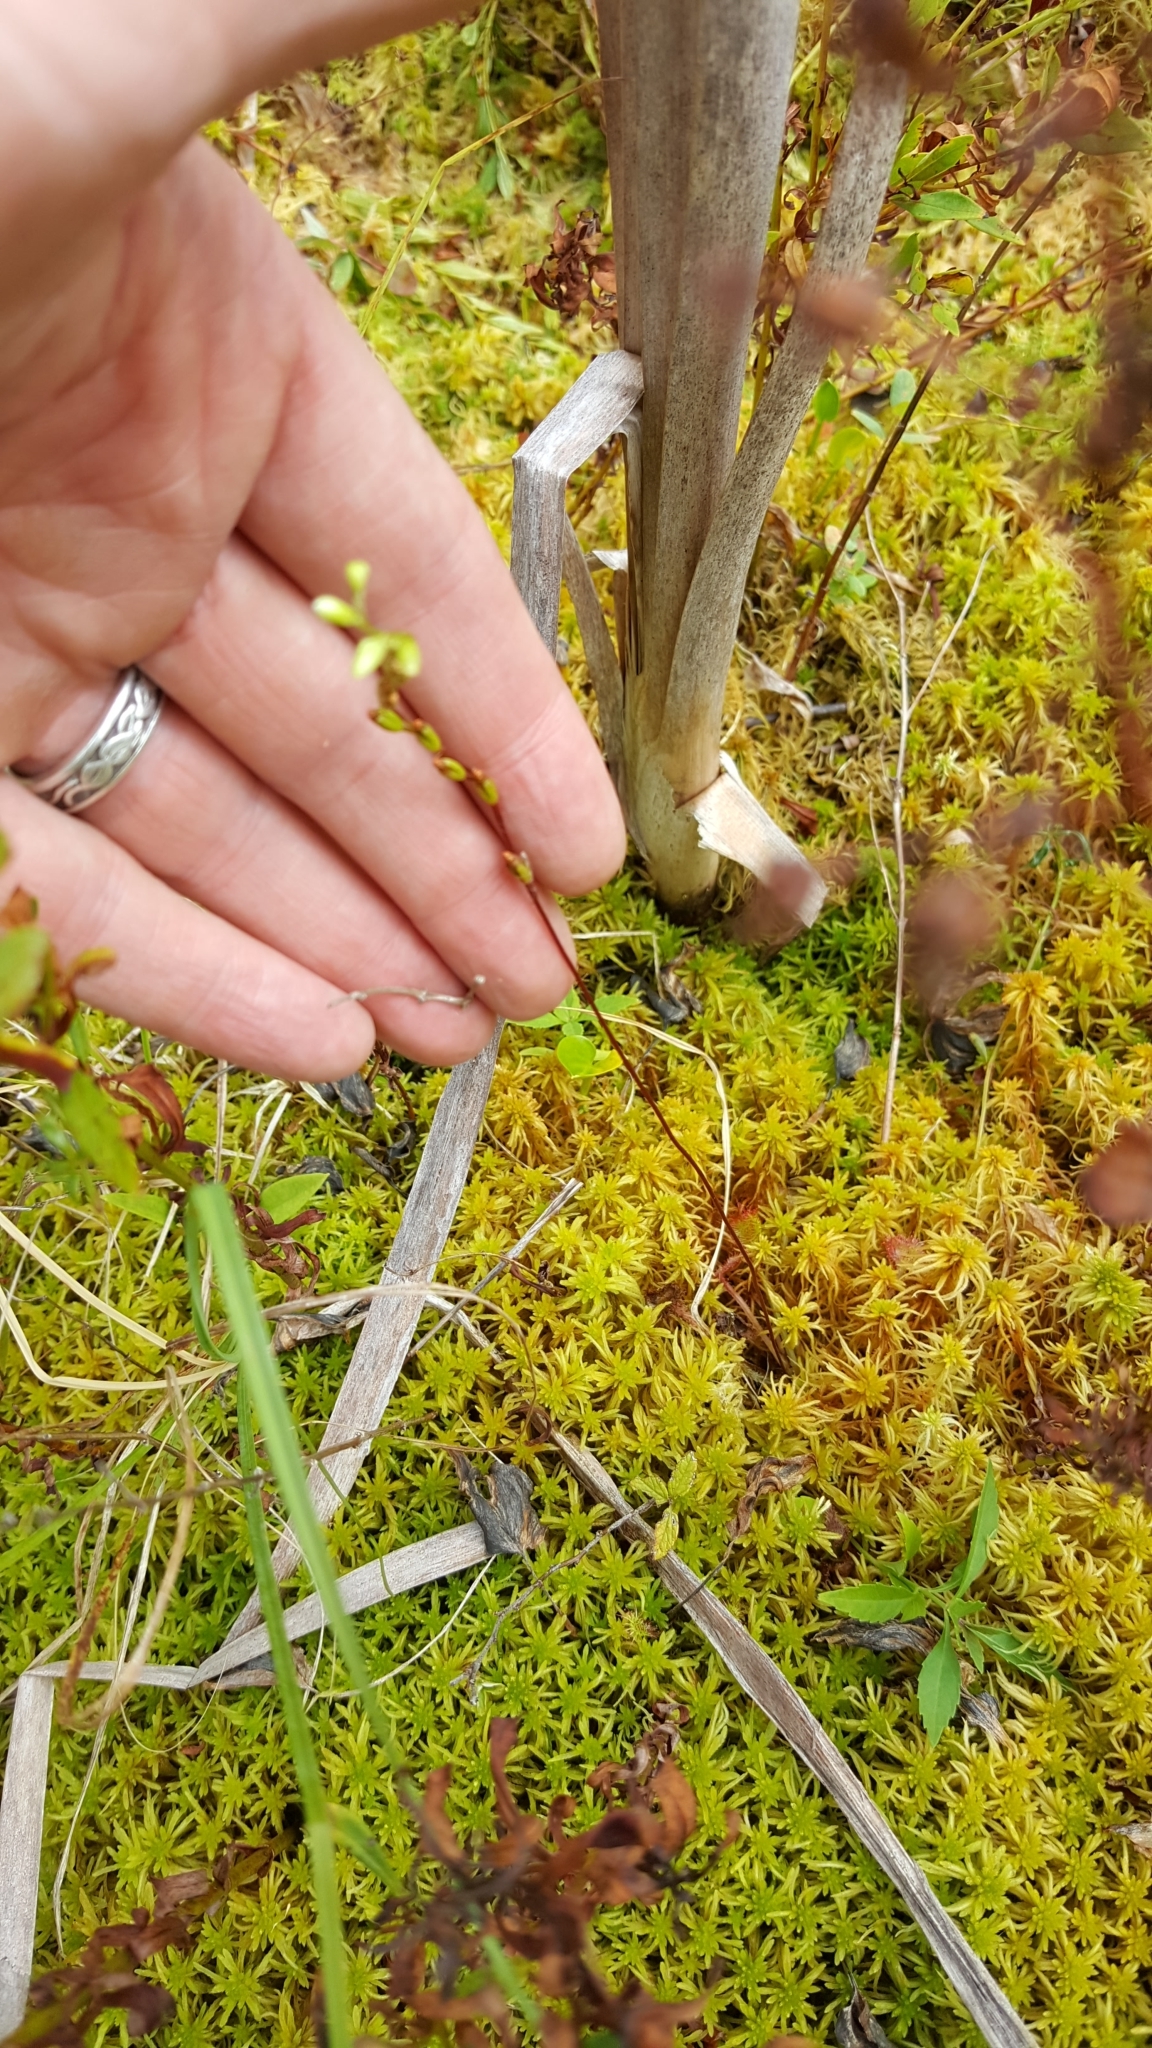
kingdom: Plantae
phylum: Tracheophyta
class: Magnoliopsida
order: Caryophyllales
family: Droseraceae
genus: Drosera
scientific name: Drosera rotundifolia
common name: Round-leaved sundew
